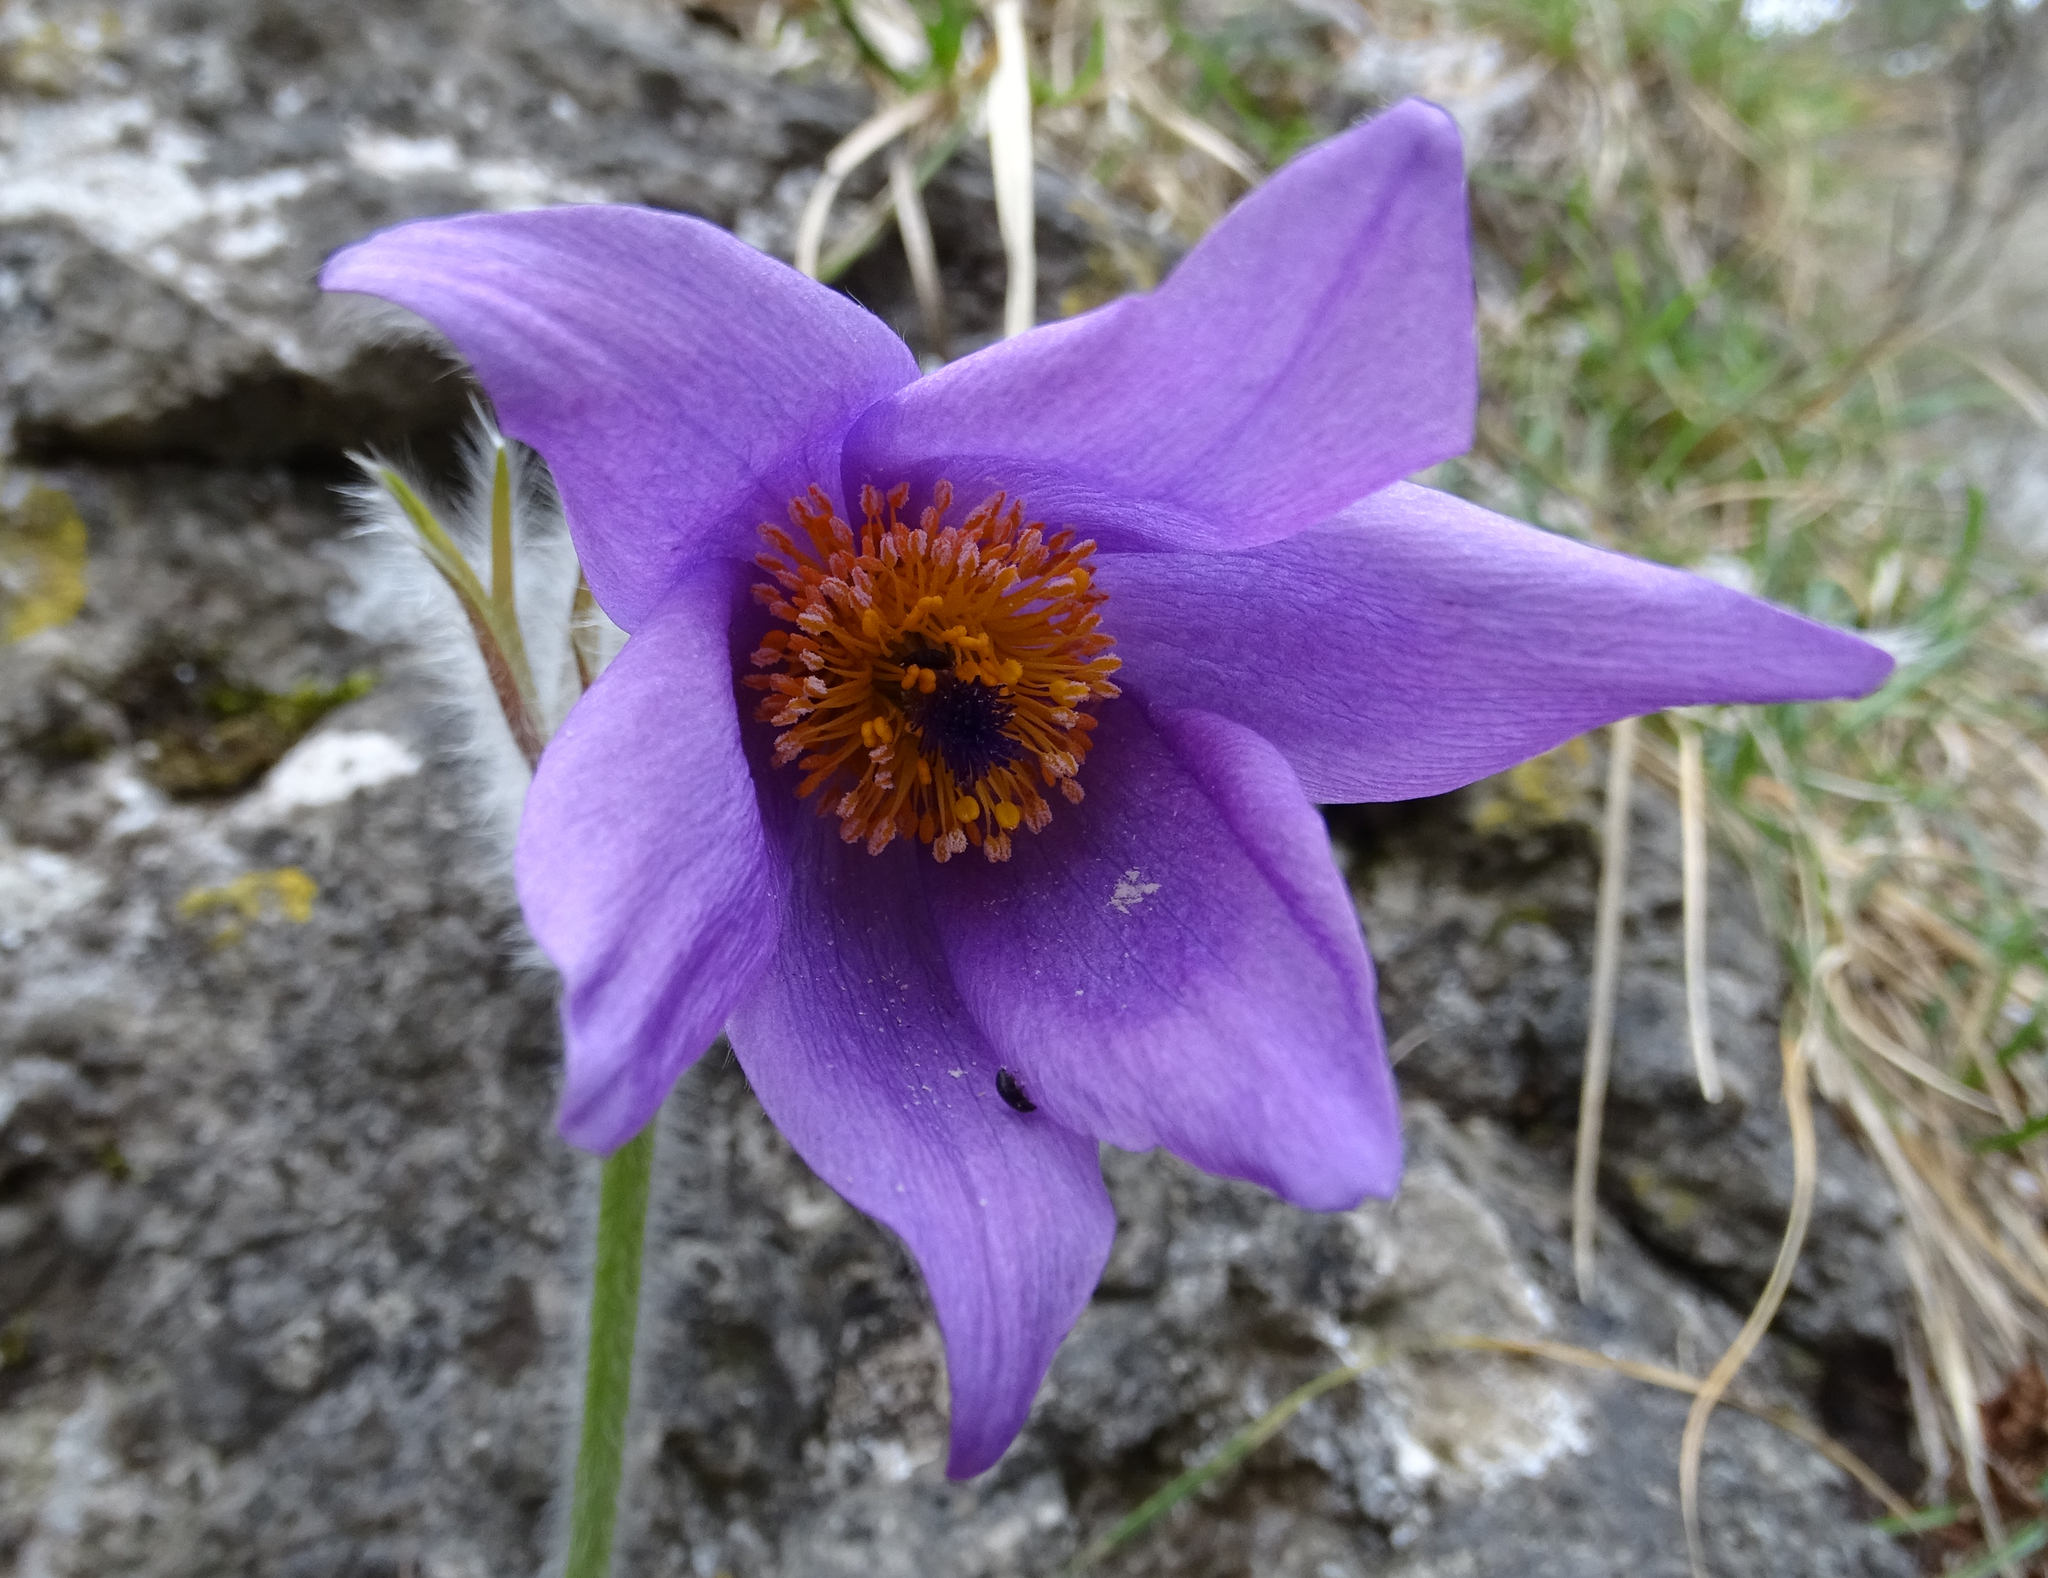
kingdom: Plantae
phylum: Tracheophyta
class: Magnoliopsida
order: Ranunculales
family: Ranunculaceae
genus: Pulsatilla
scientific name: Pulsatilla grandis
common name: Greater pasque flower
